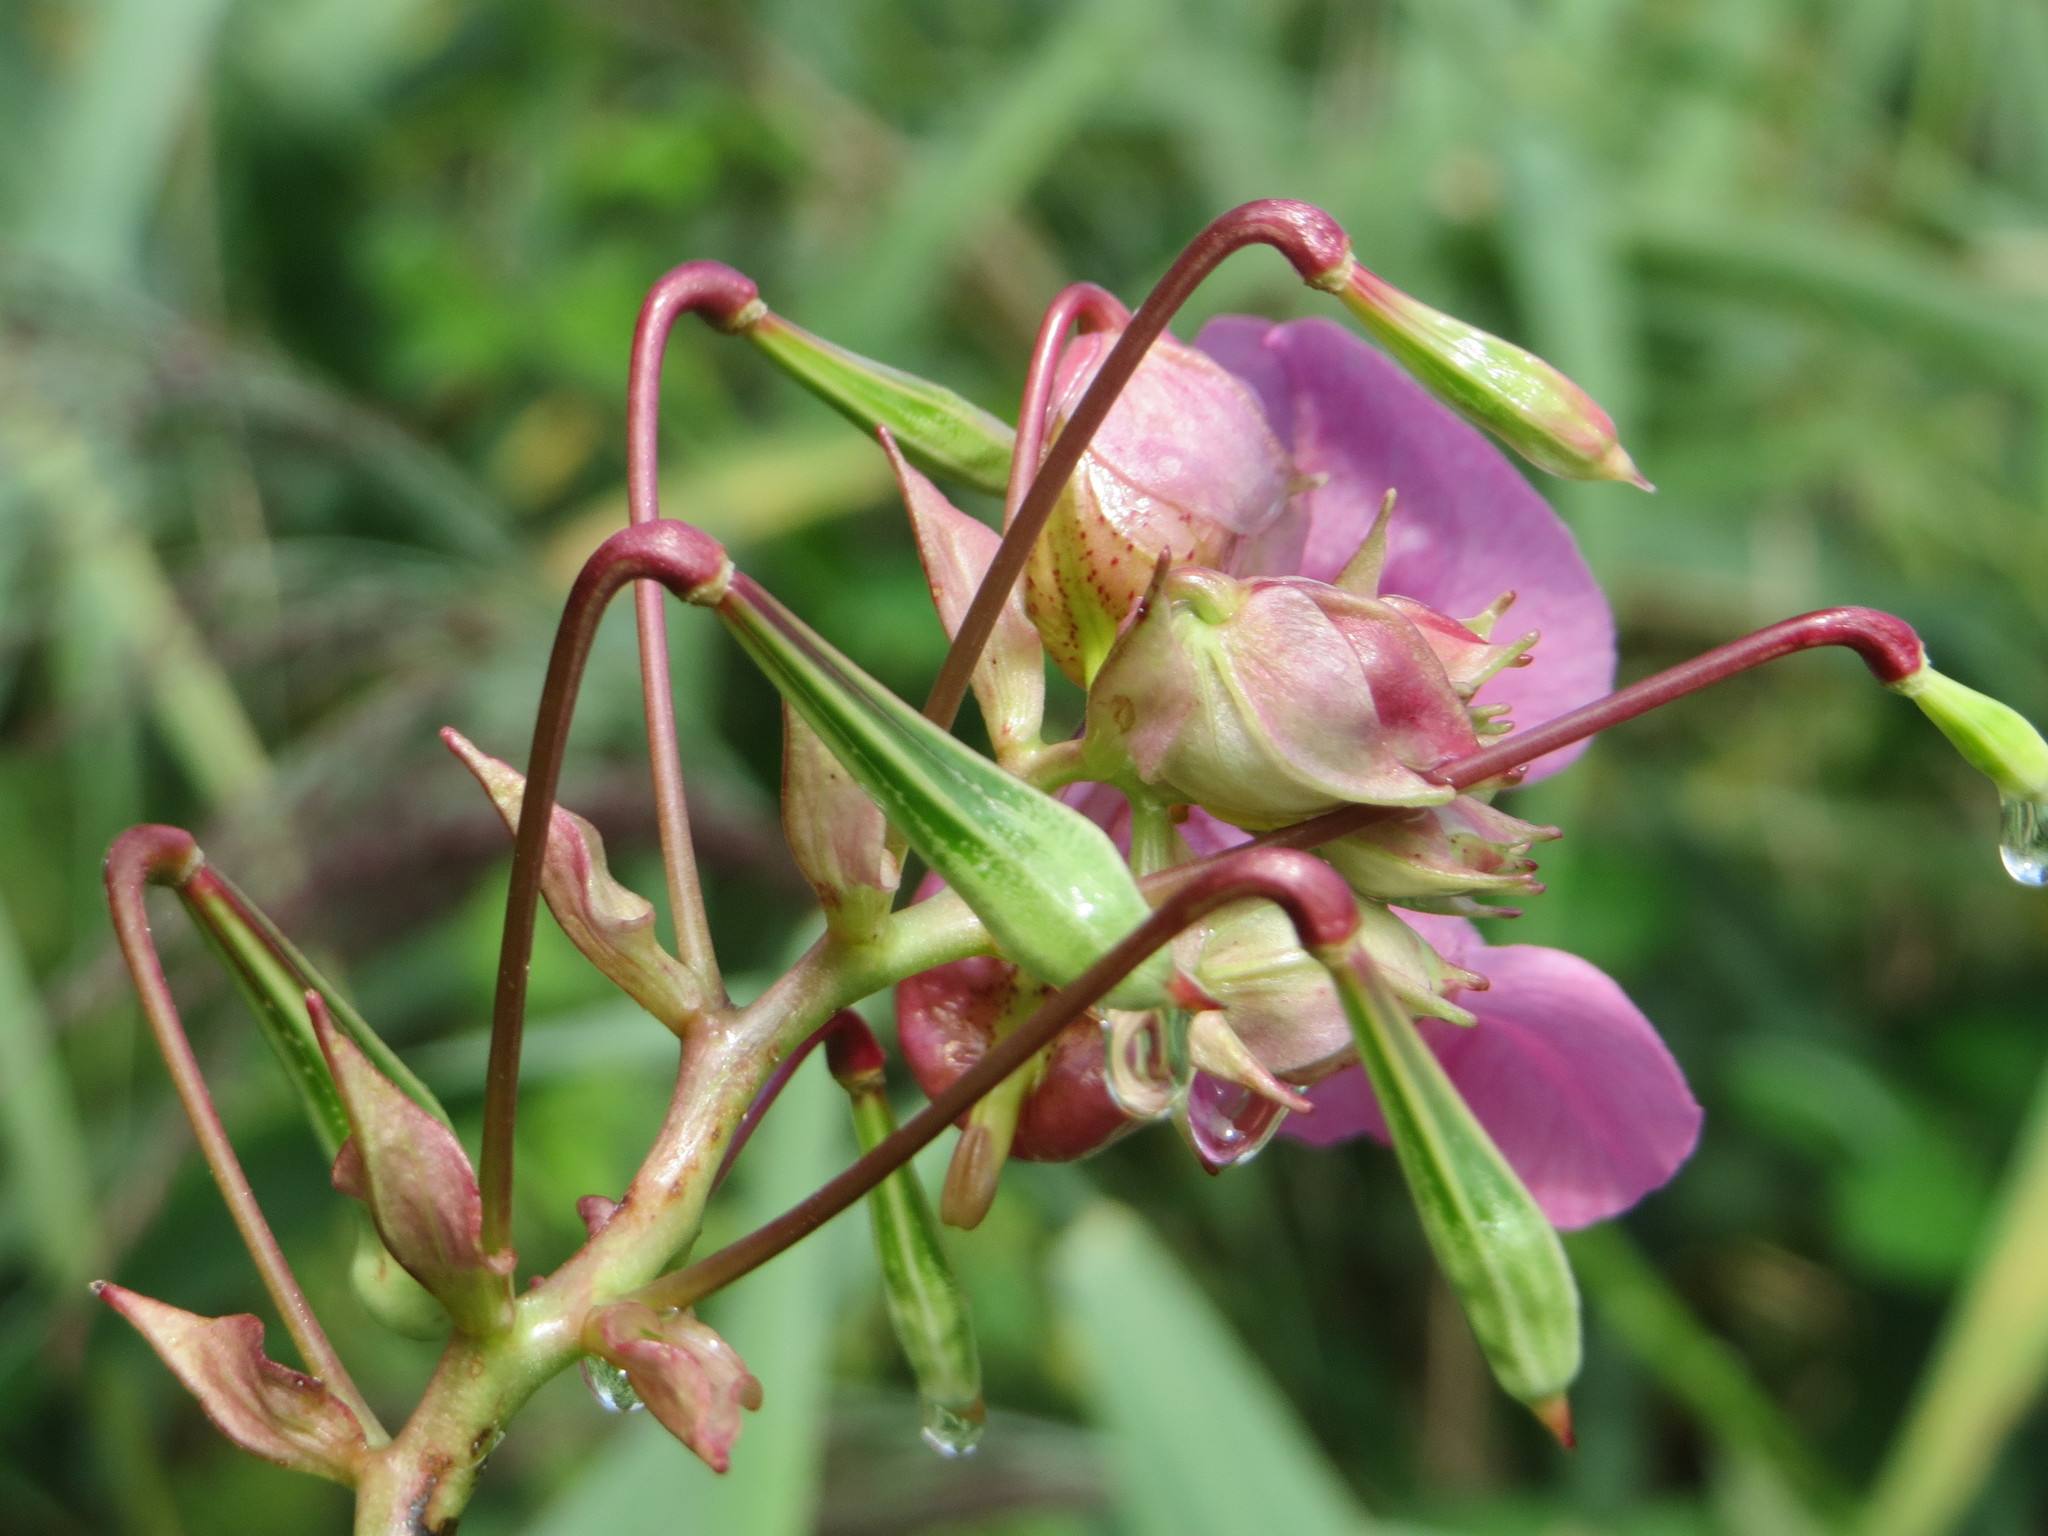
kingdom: Plantae
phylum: Tracheophyta
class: Magnoliopsida
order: Ericales
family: Balsaminaceae
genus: Impatiens
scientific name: Impatiens glandulifera
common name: Himalayan balsam
